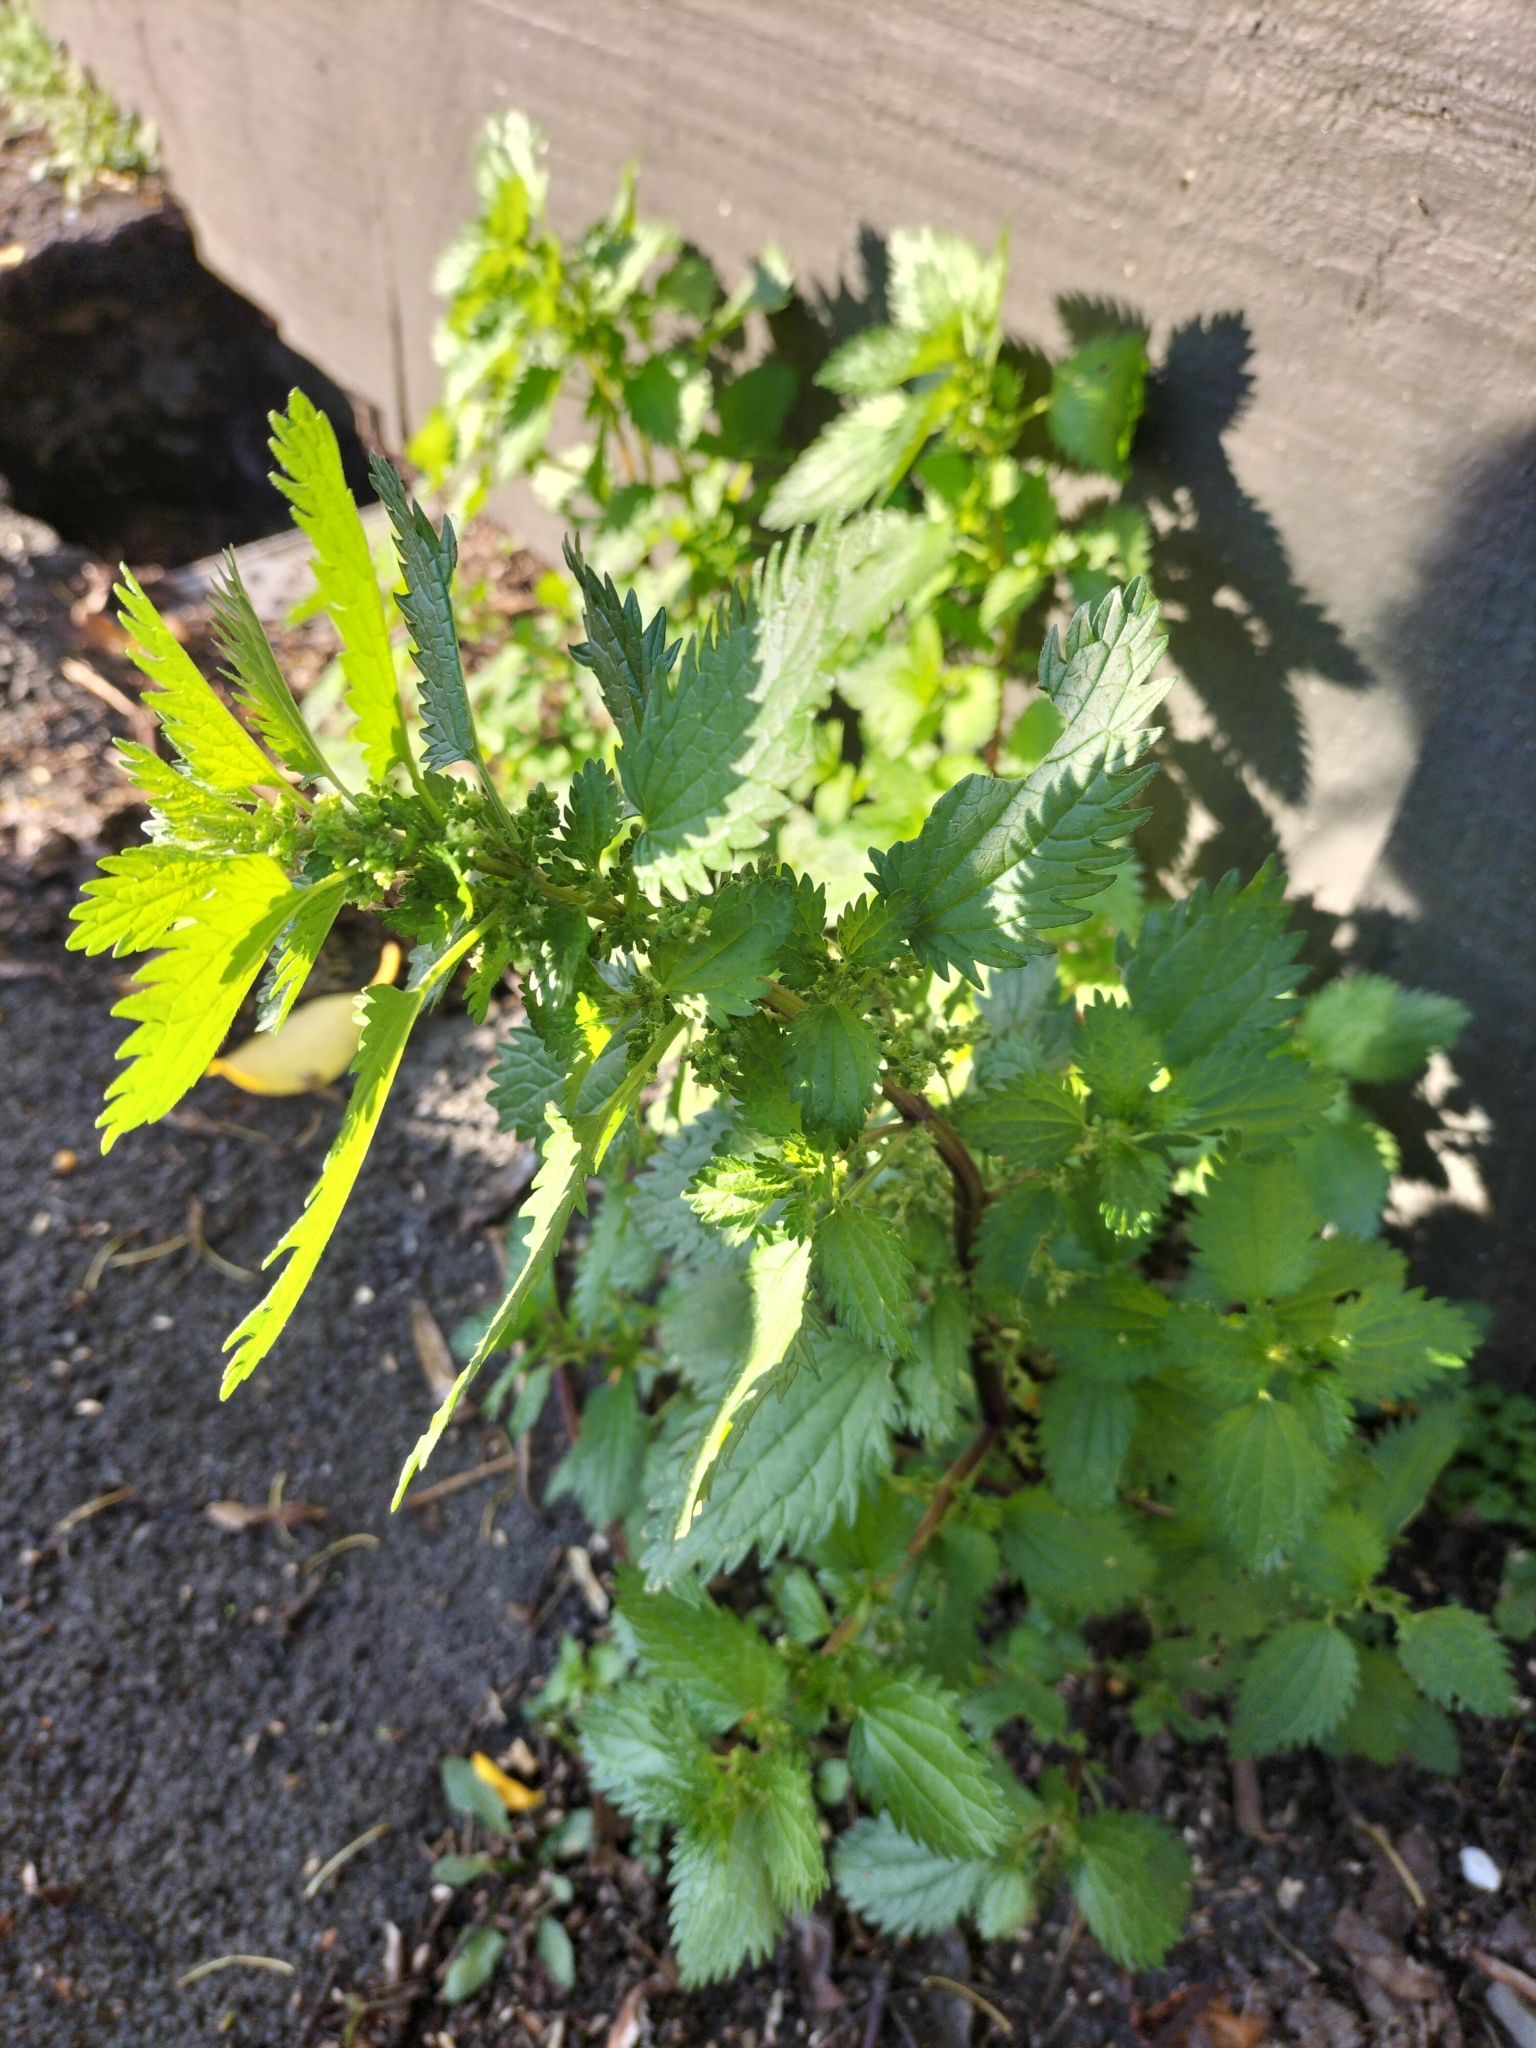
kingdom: Plantae
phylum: Tracheophyta
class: Magnoliopsida
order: Rosales
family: Urticaceae
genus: Urtica
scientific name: Urtica urens
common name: Dwarf nettle
